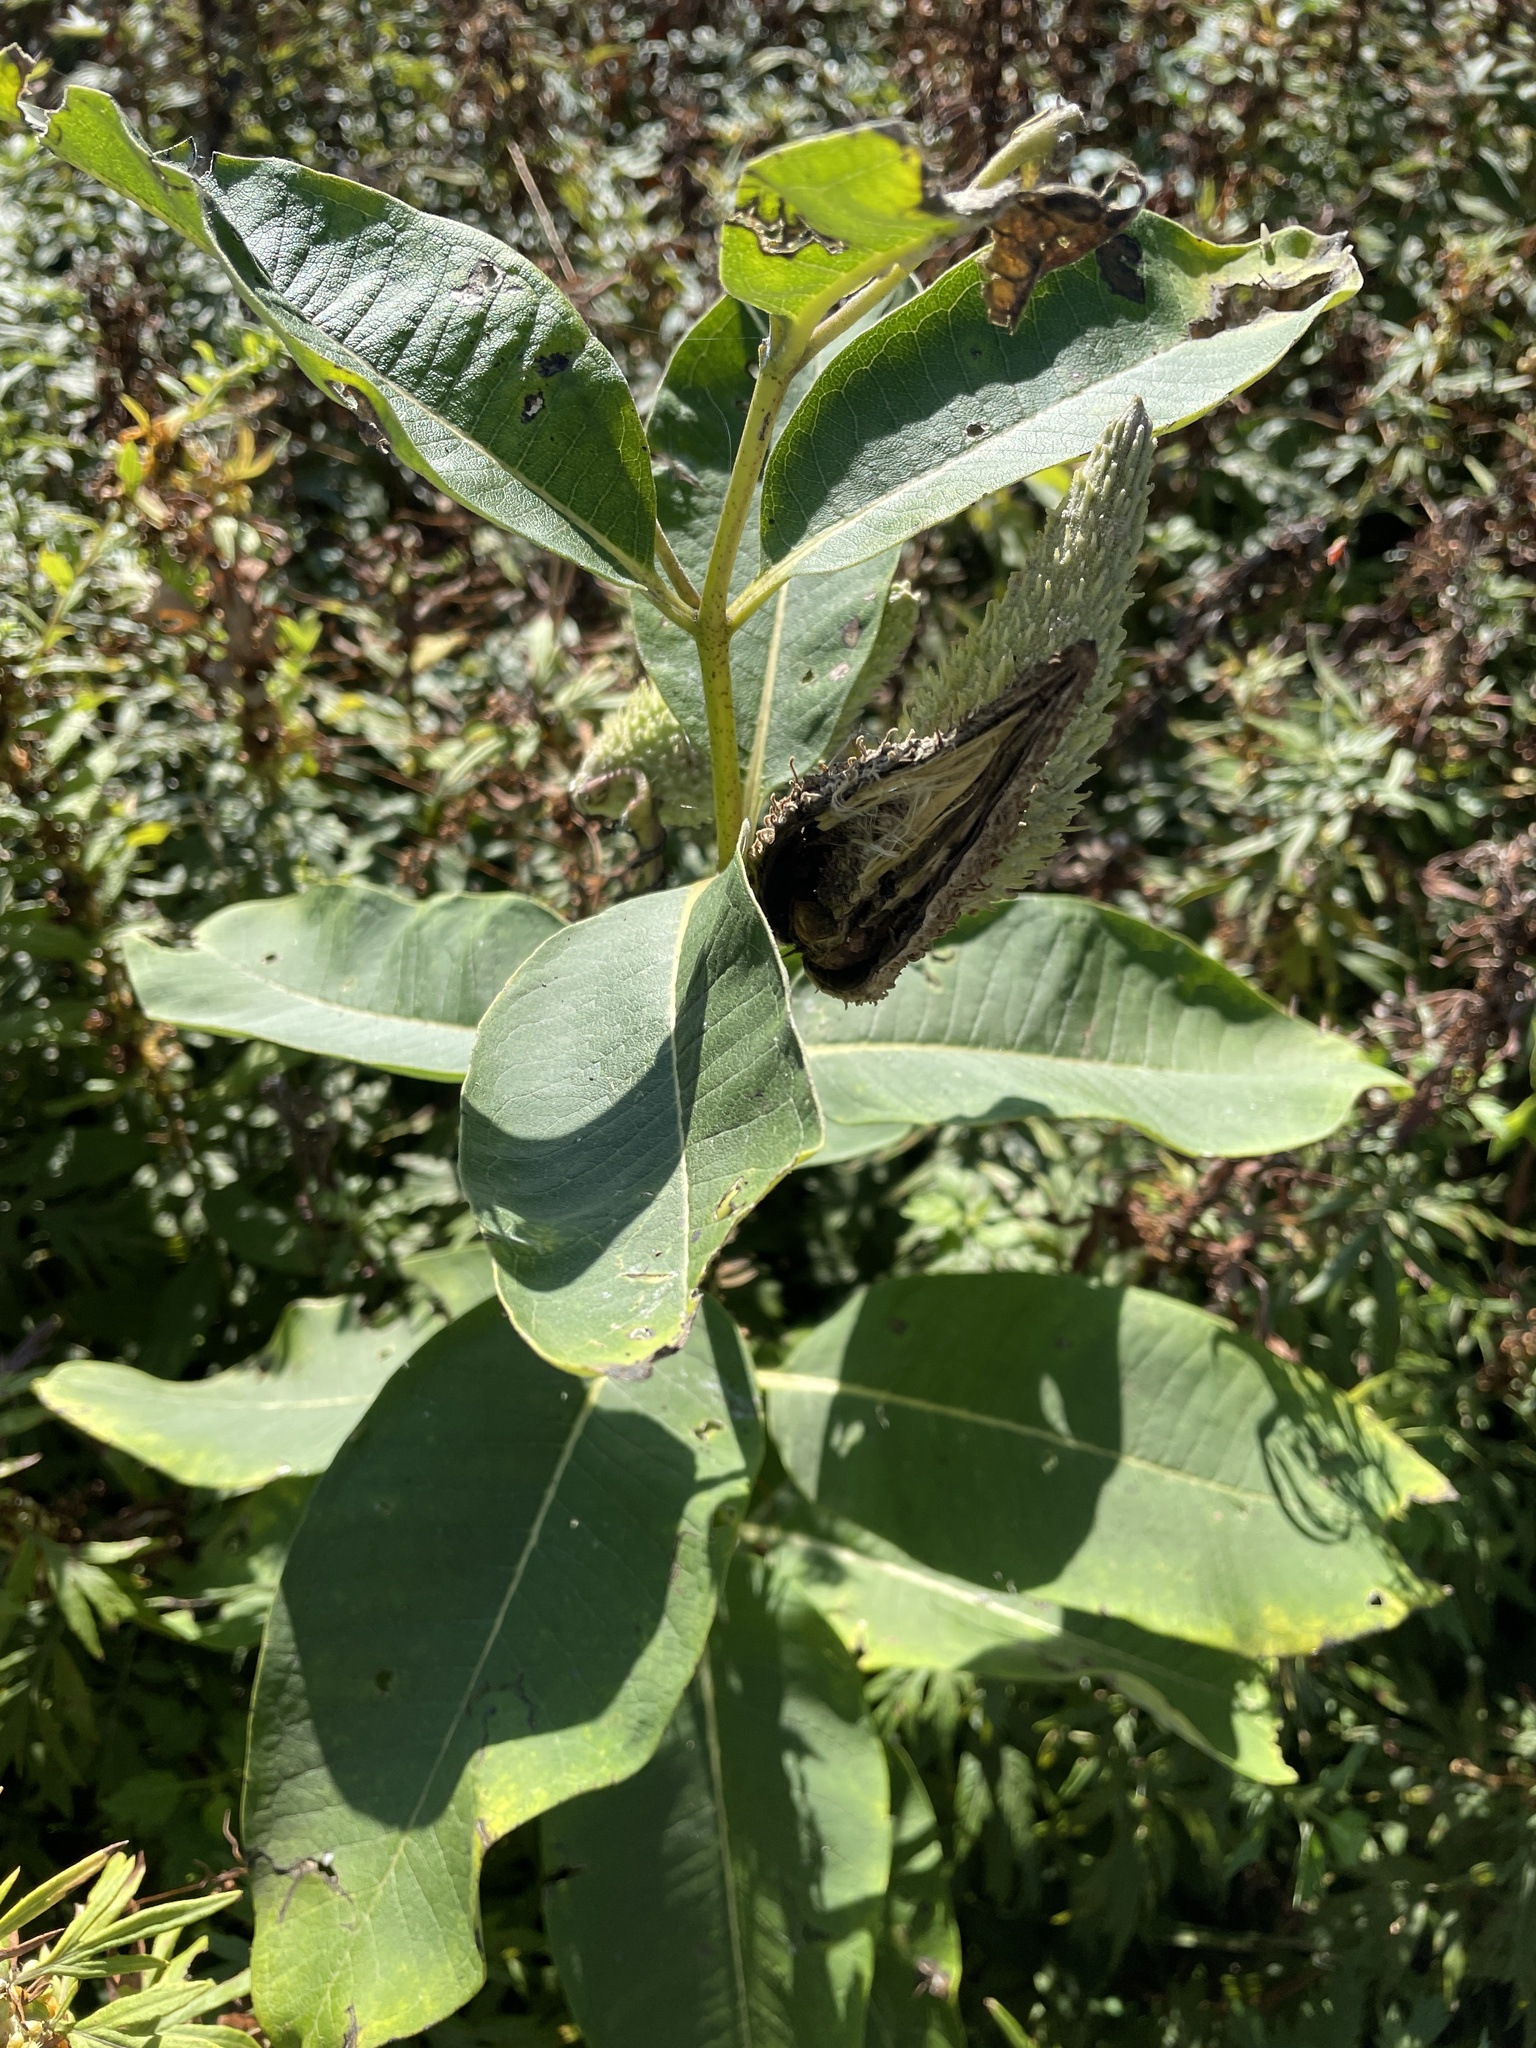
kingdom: Plantae
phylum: Tracheophyta
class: Magnoliopsida
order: Gentianales
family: Apocynaceae
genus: Asclepias
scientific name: Asclepias syriaca
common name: Common milkweed
